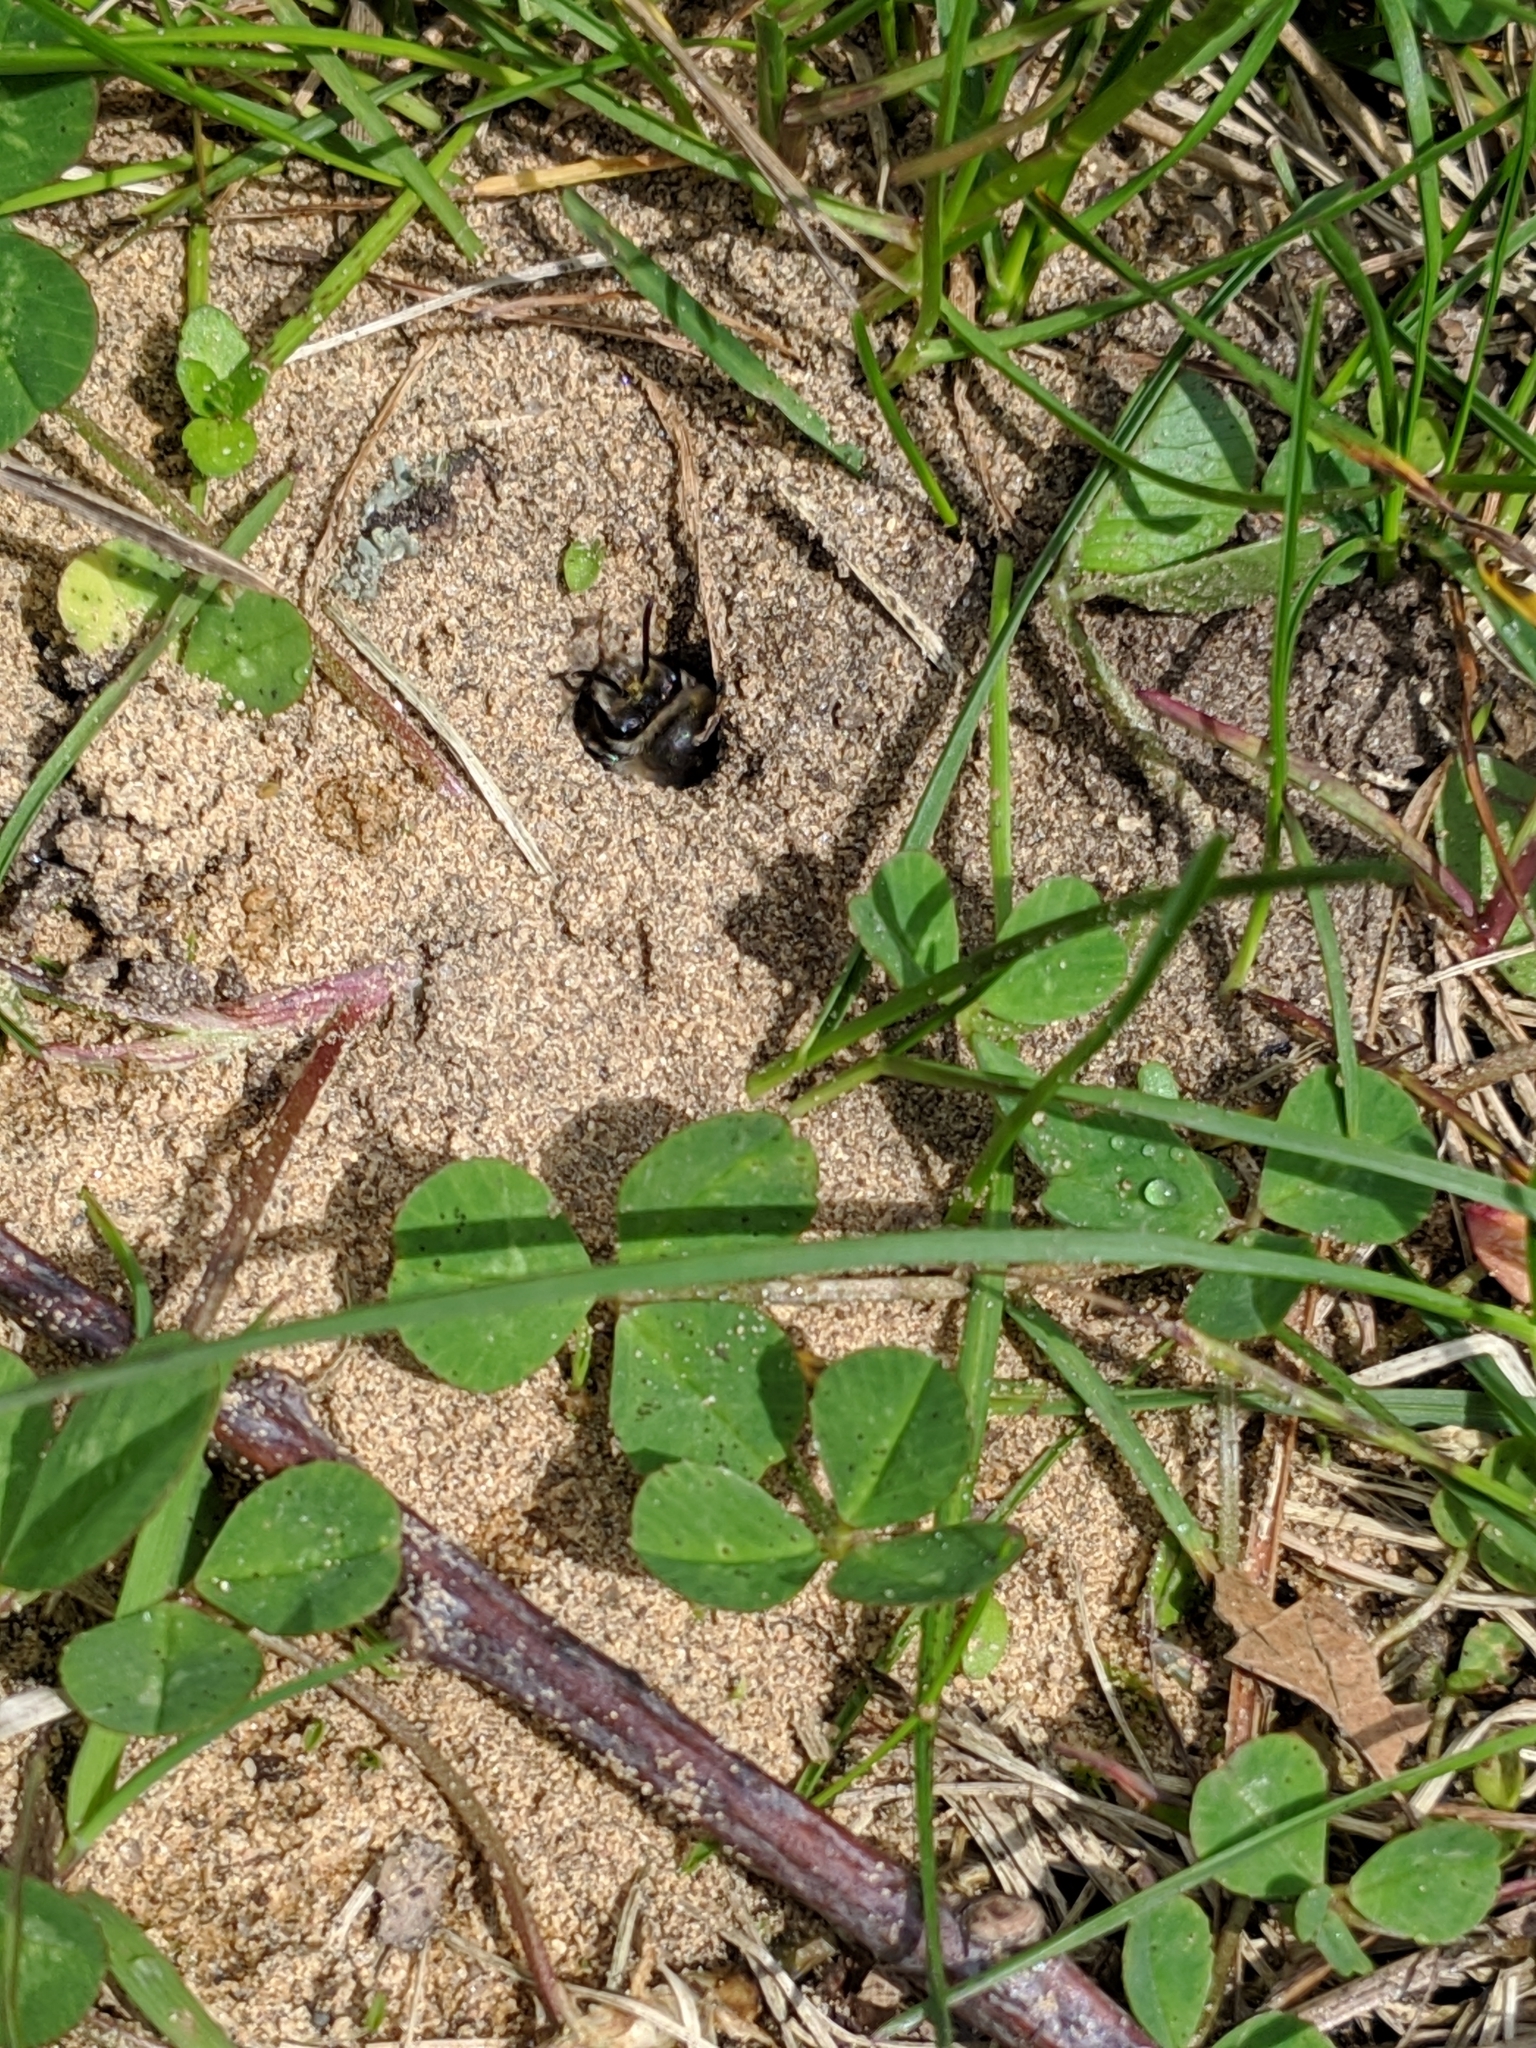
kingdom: Animalia
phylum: Arthropoda
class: Insecta
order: Hymenoptera
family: Colletidae
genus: Colletes
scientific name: Colletes inaequalis
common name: Unequal cellophane bee
